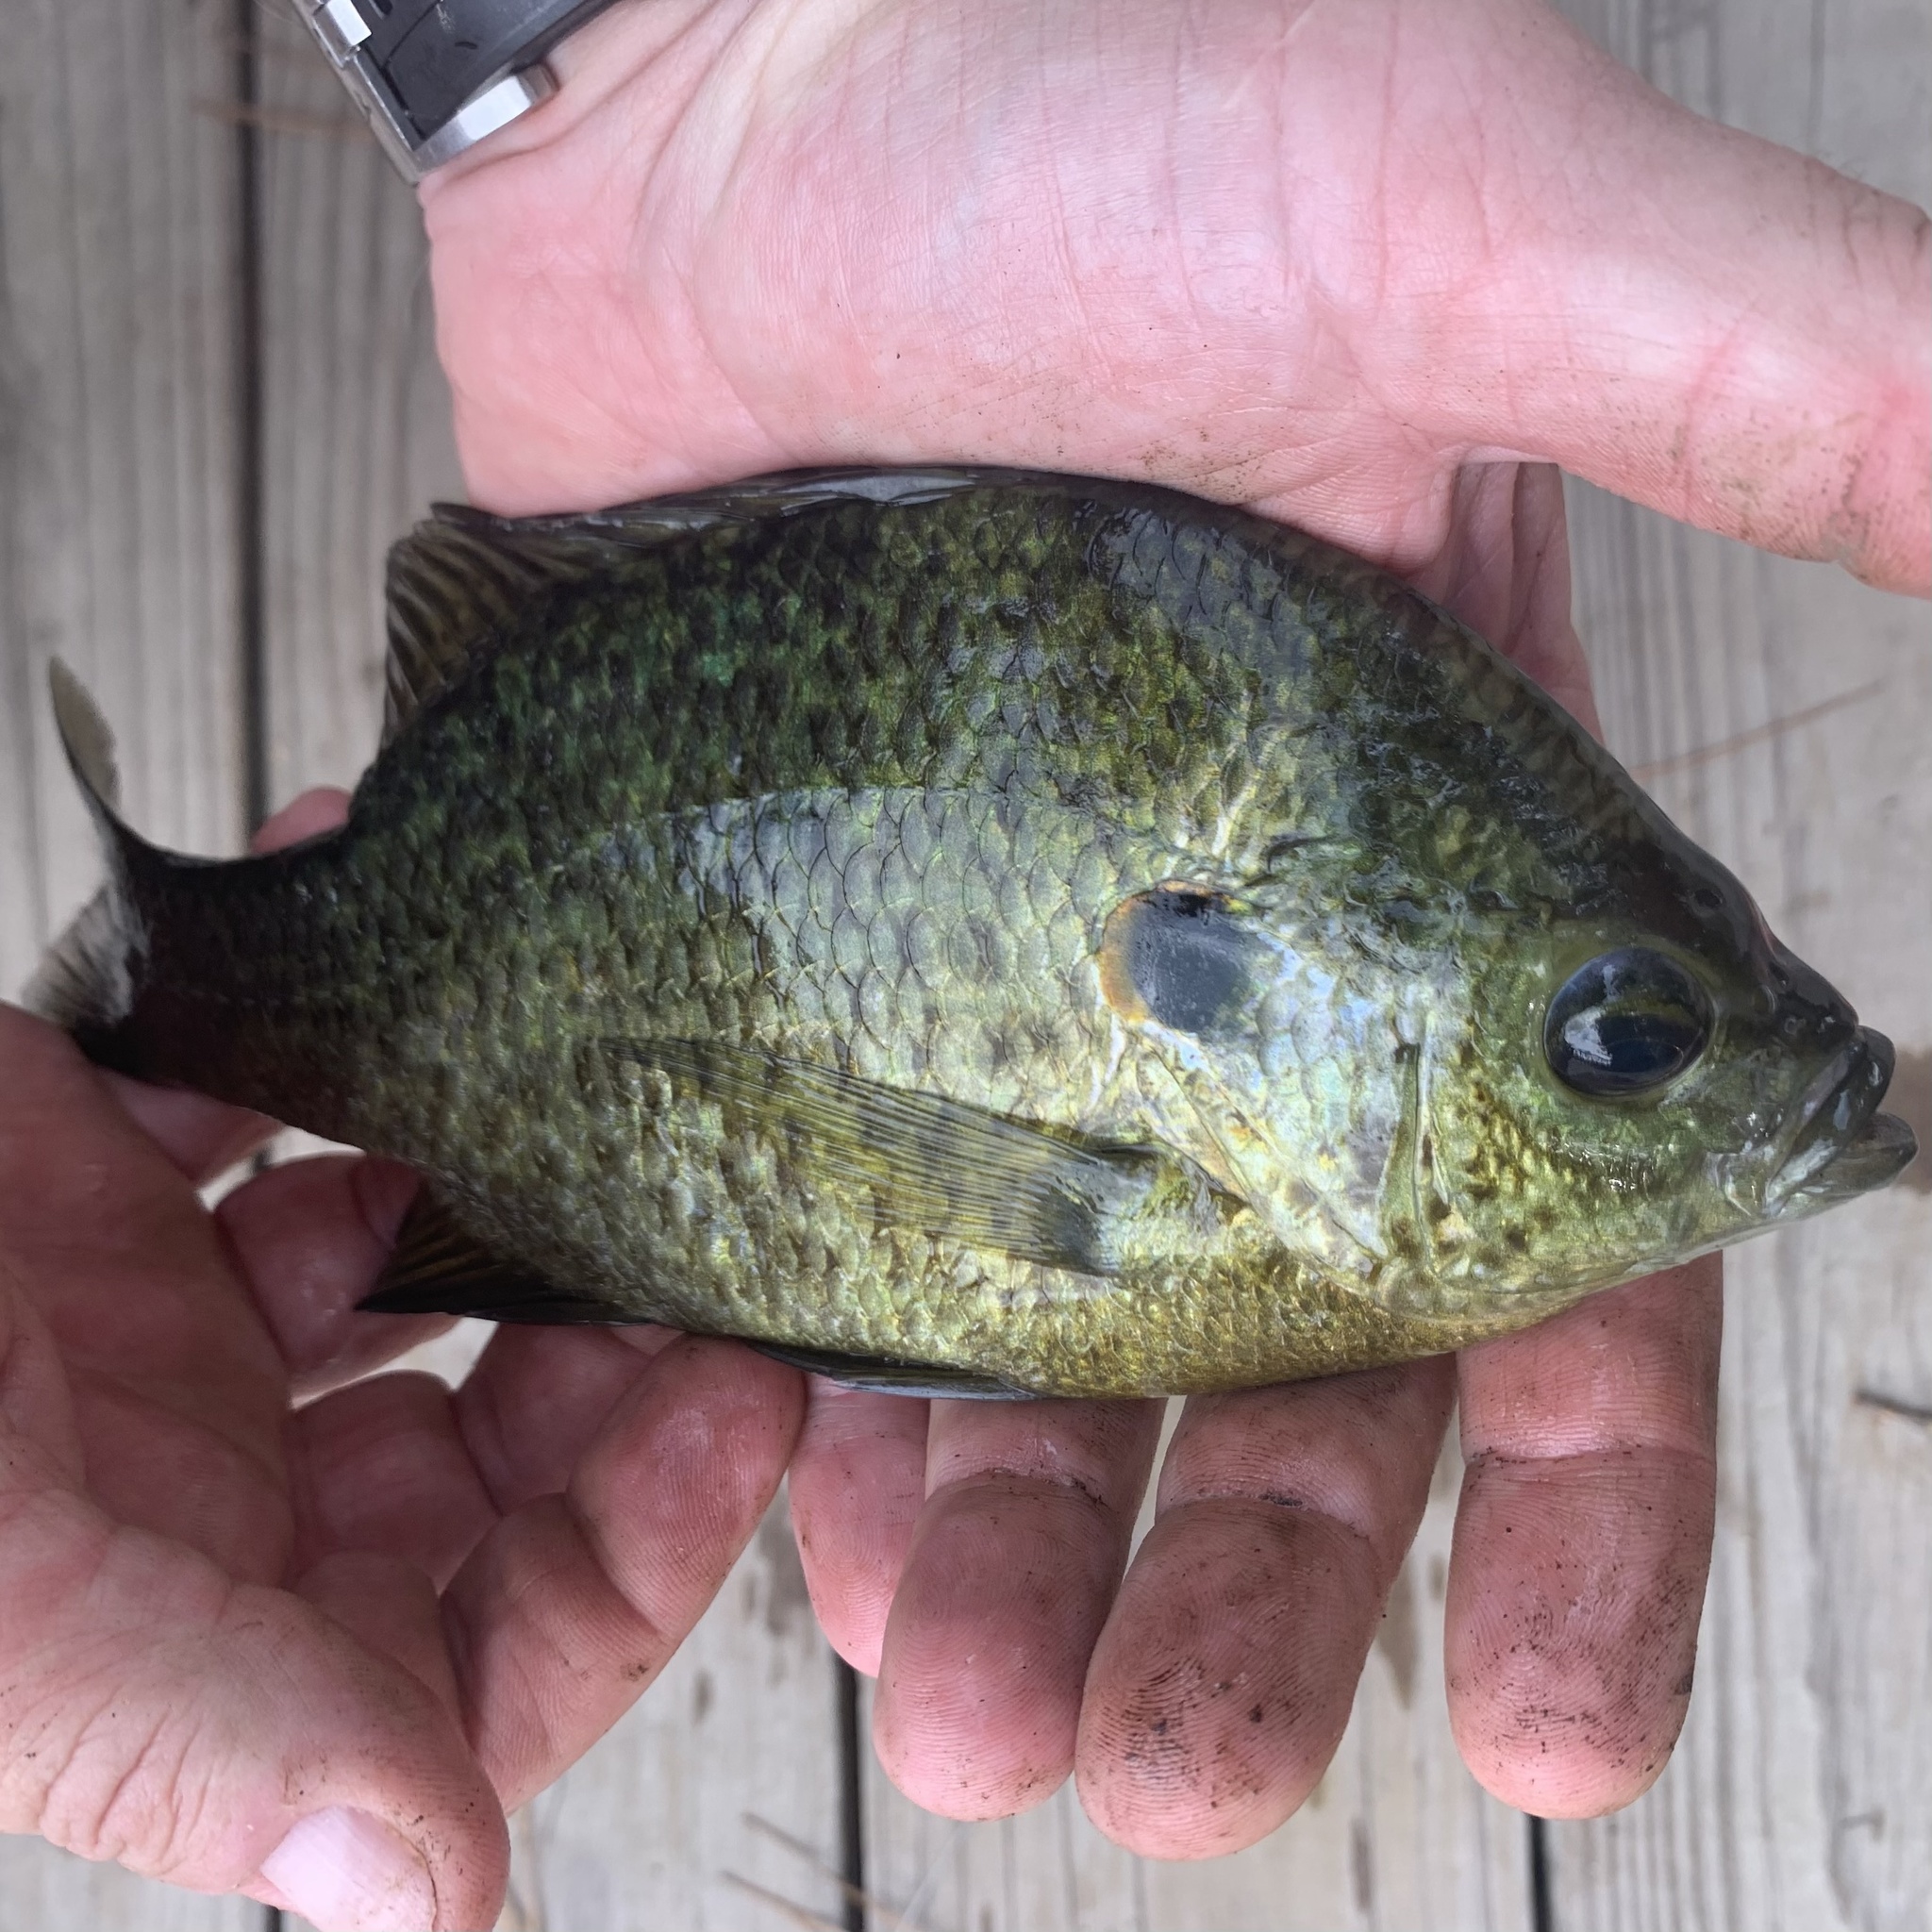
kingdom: Animalia
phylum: Chordata
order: Perciformes
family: Centrarchidae
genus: Lepomis
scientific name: Lepomis microlophus
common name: Redear sunfish
